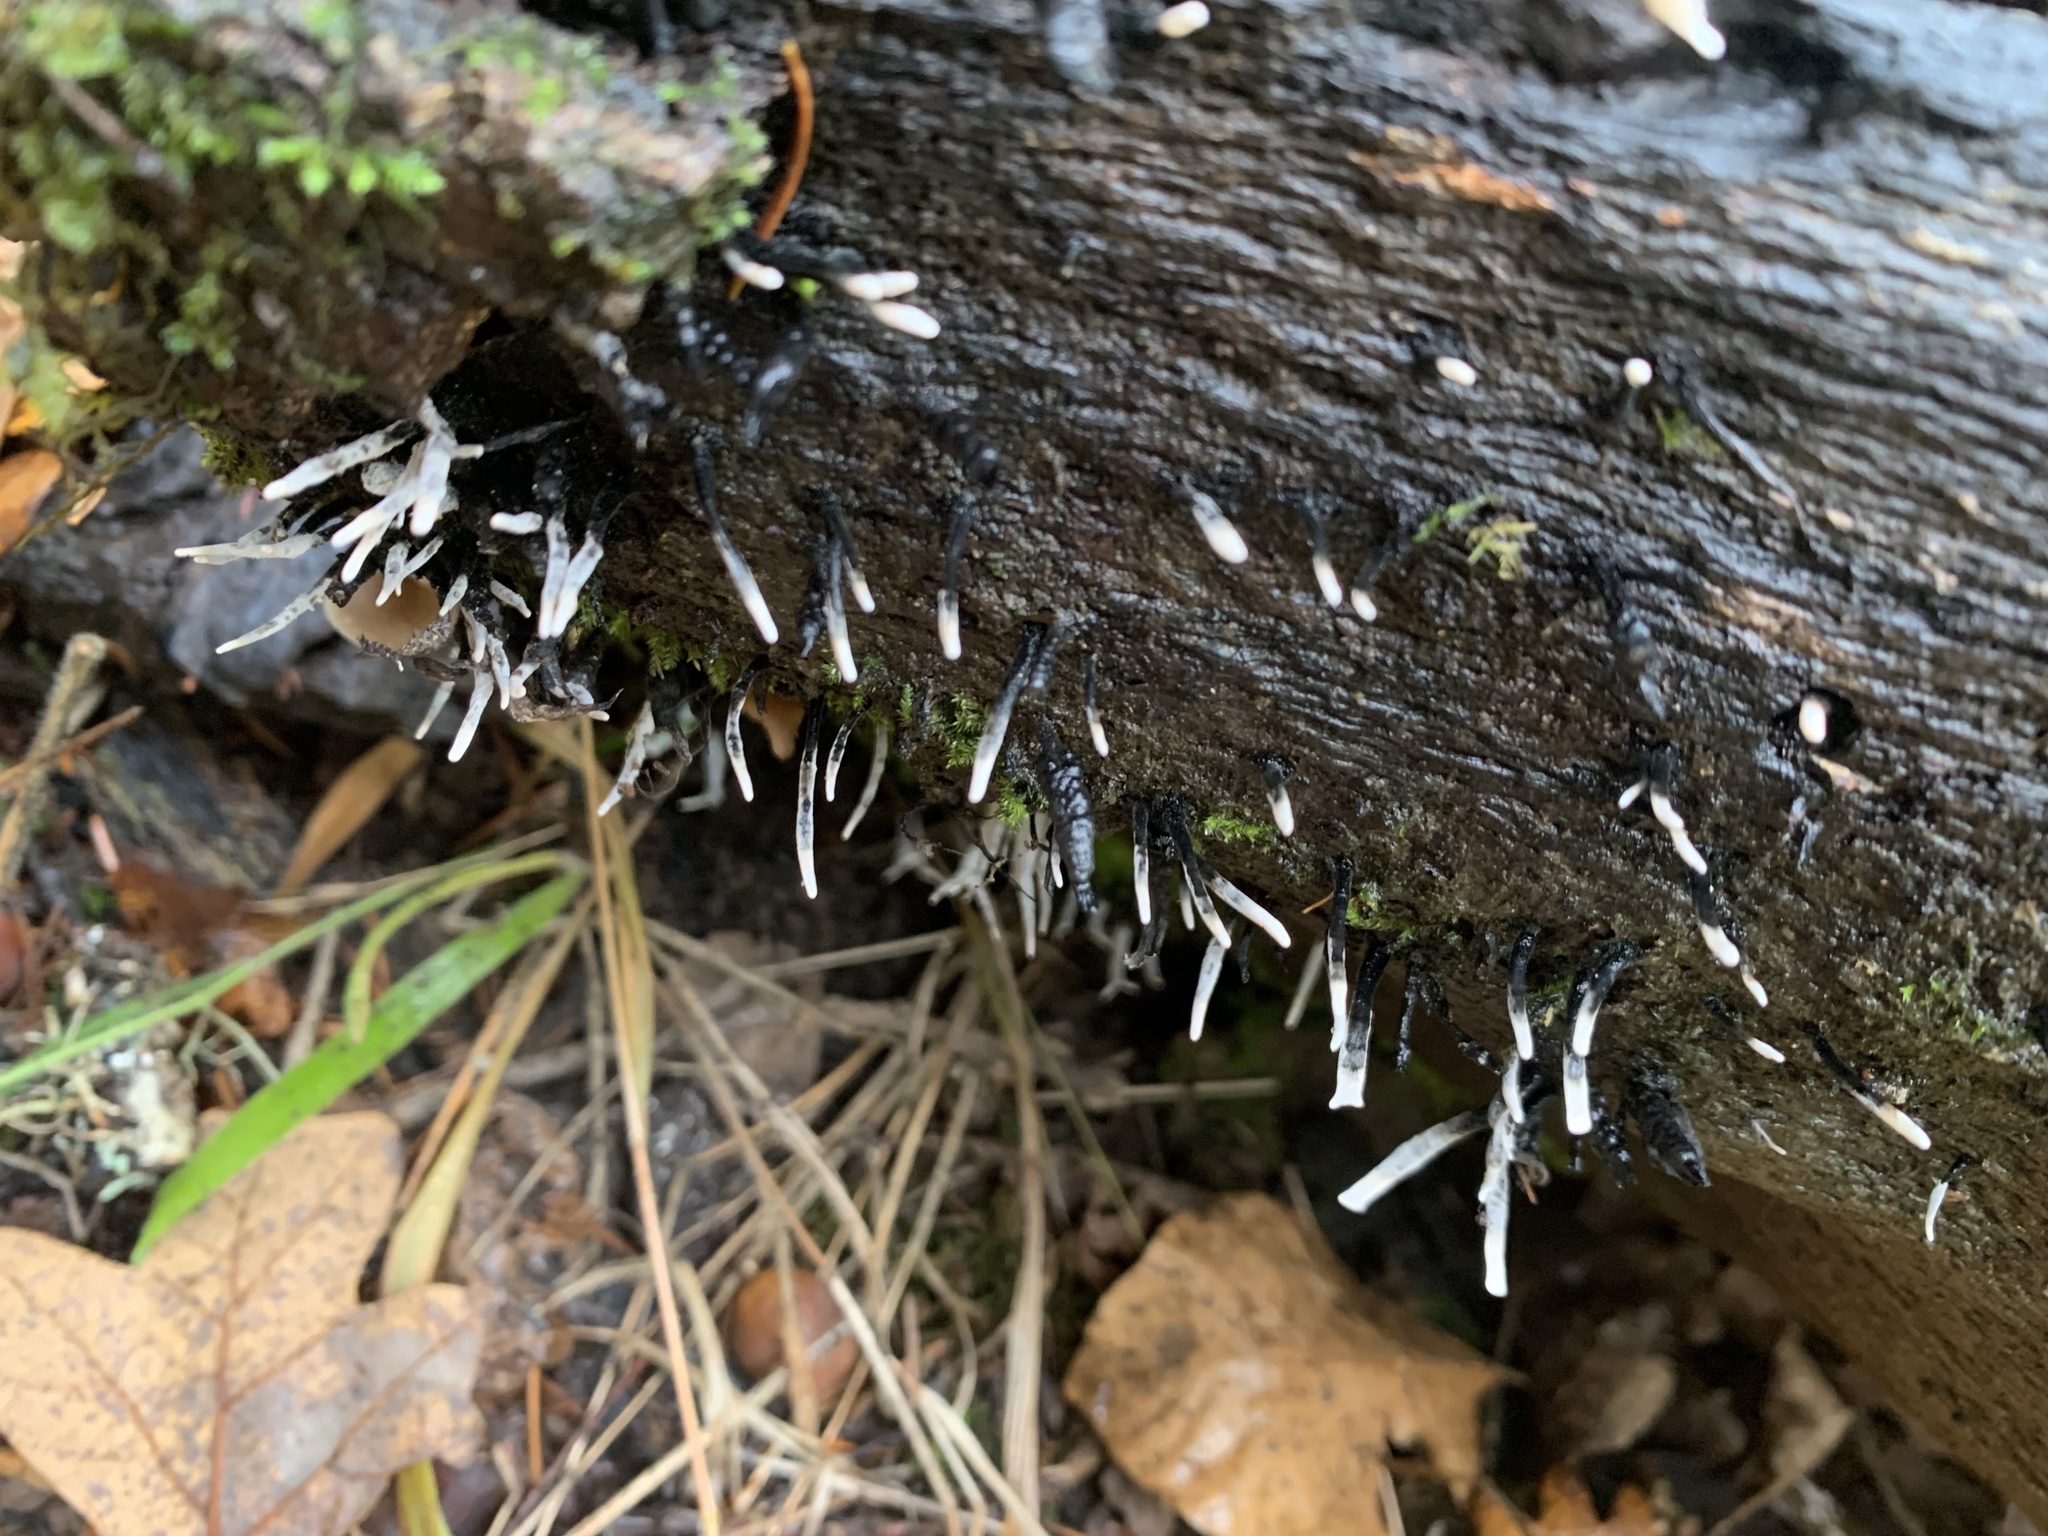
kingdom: Fungi
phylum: Ascomycota
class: Sordariomycetes
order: Xylariales
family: Xylariaceae
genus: Xylaria
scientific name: Xylaria hypoxylon
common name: Candle-snuff fungus
